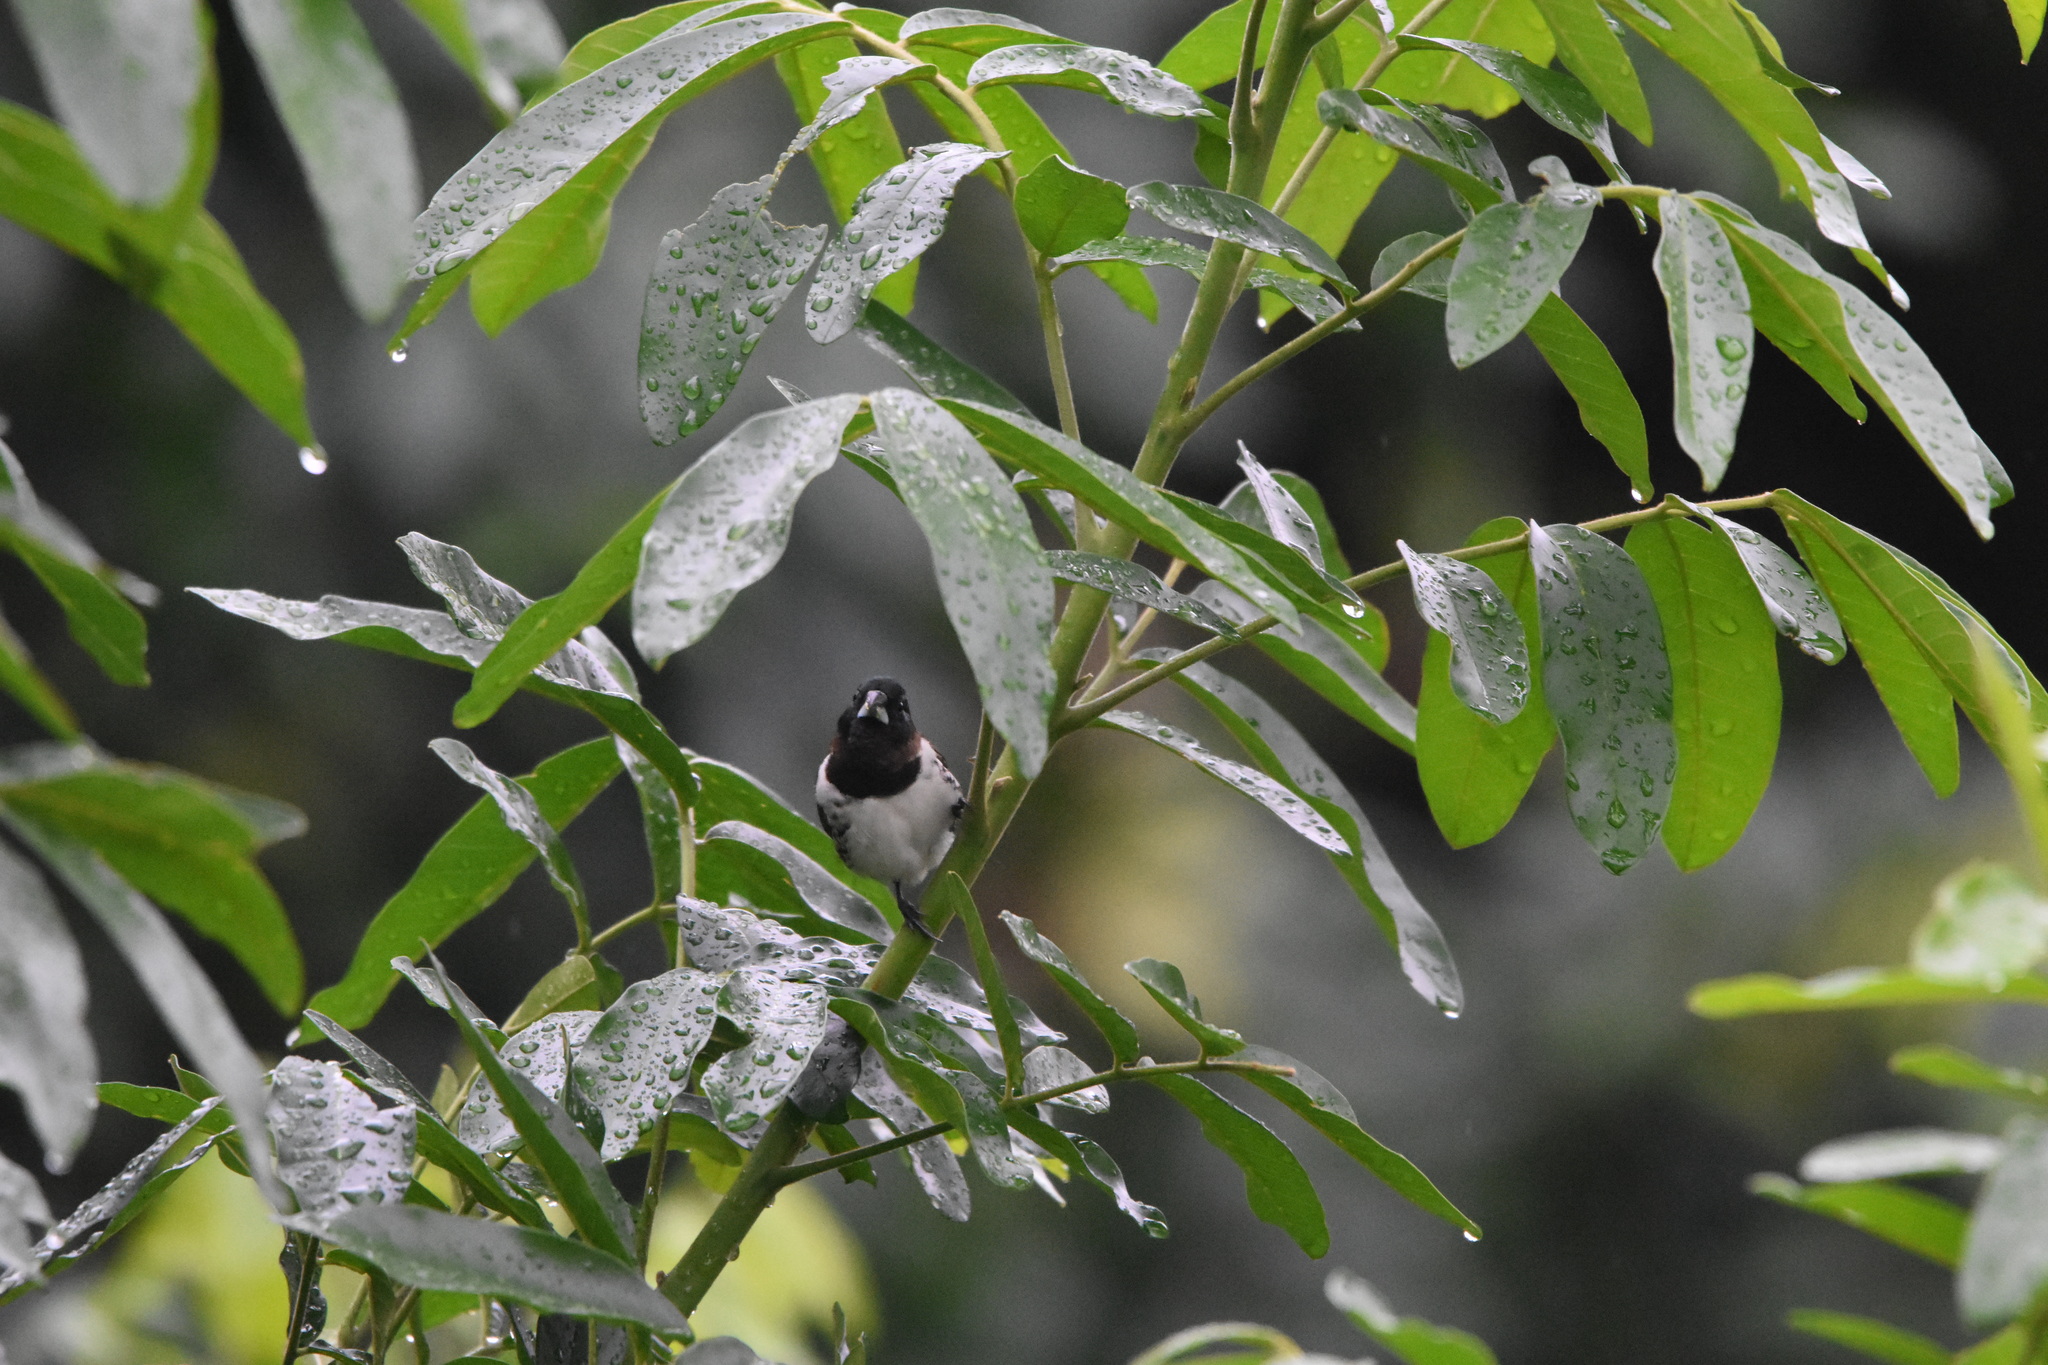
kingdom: Animalia
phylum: Chordata
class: Aves
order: Passeriformes
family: Estrildidae
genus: Lonchura
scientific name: Lonchura cucullata
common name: Bronze mannikin
